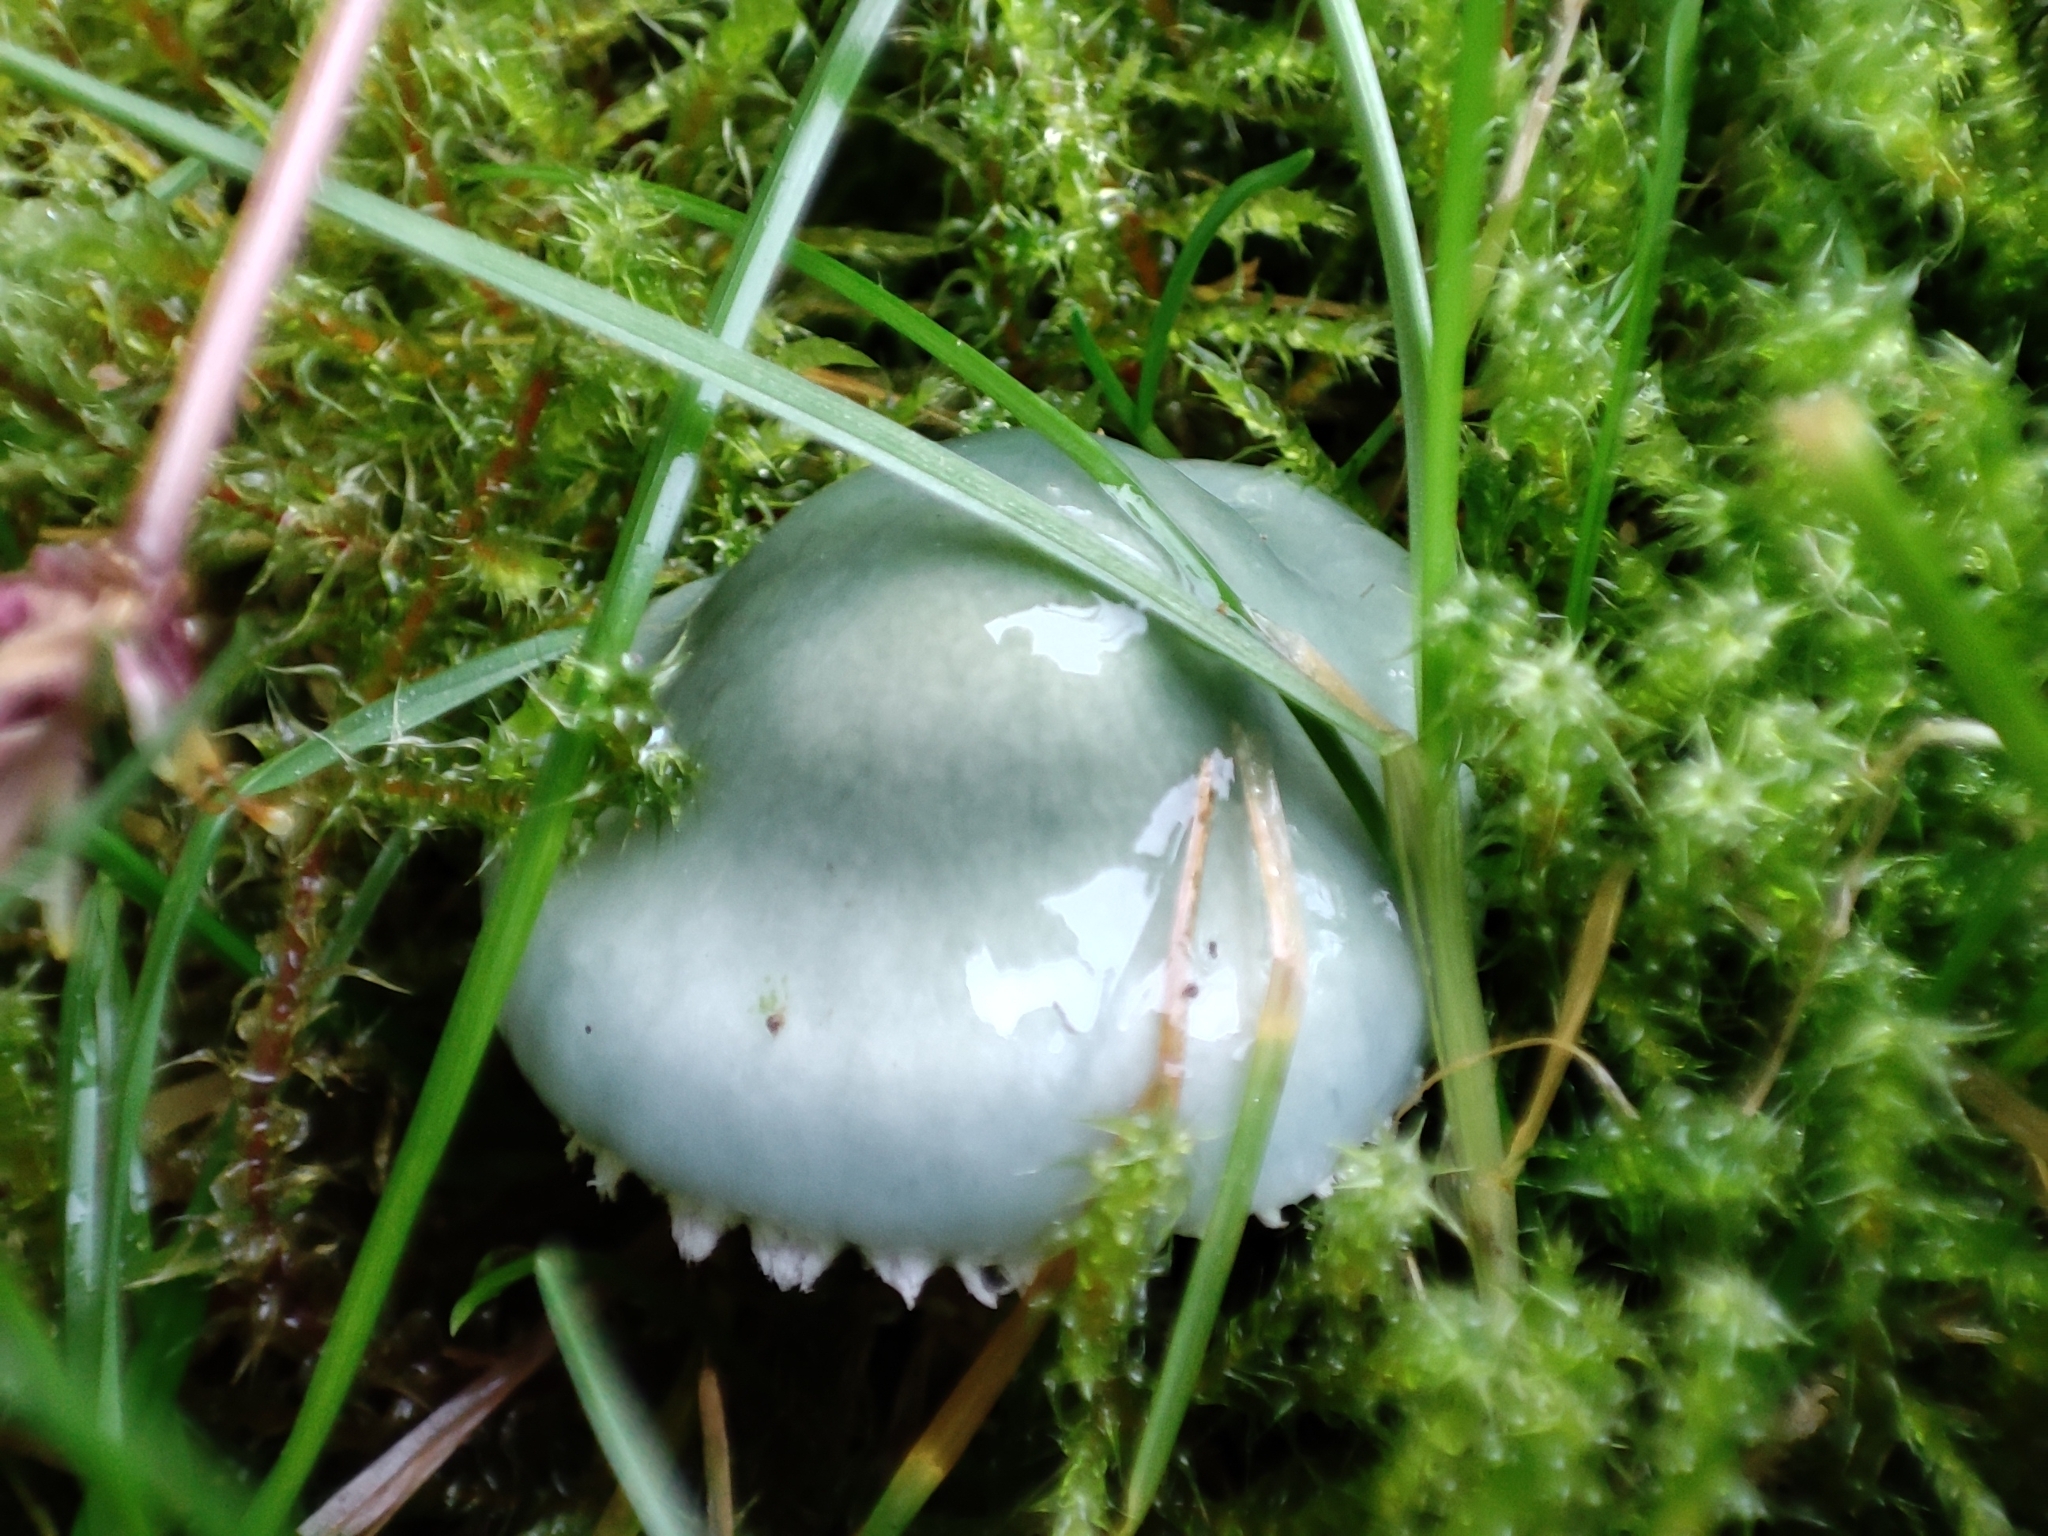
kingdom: Fungi
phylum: Basidiomycota
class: Agaricomycetes
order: Agaricales
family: Strophariaceae
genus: Stropharia
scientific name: Stropharia aeruginosa
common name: Verdigris roundhead
